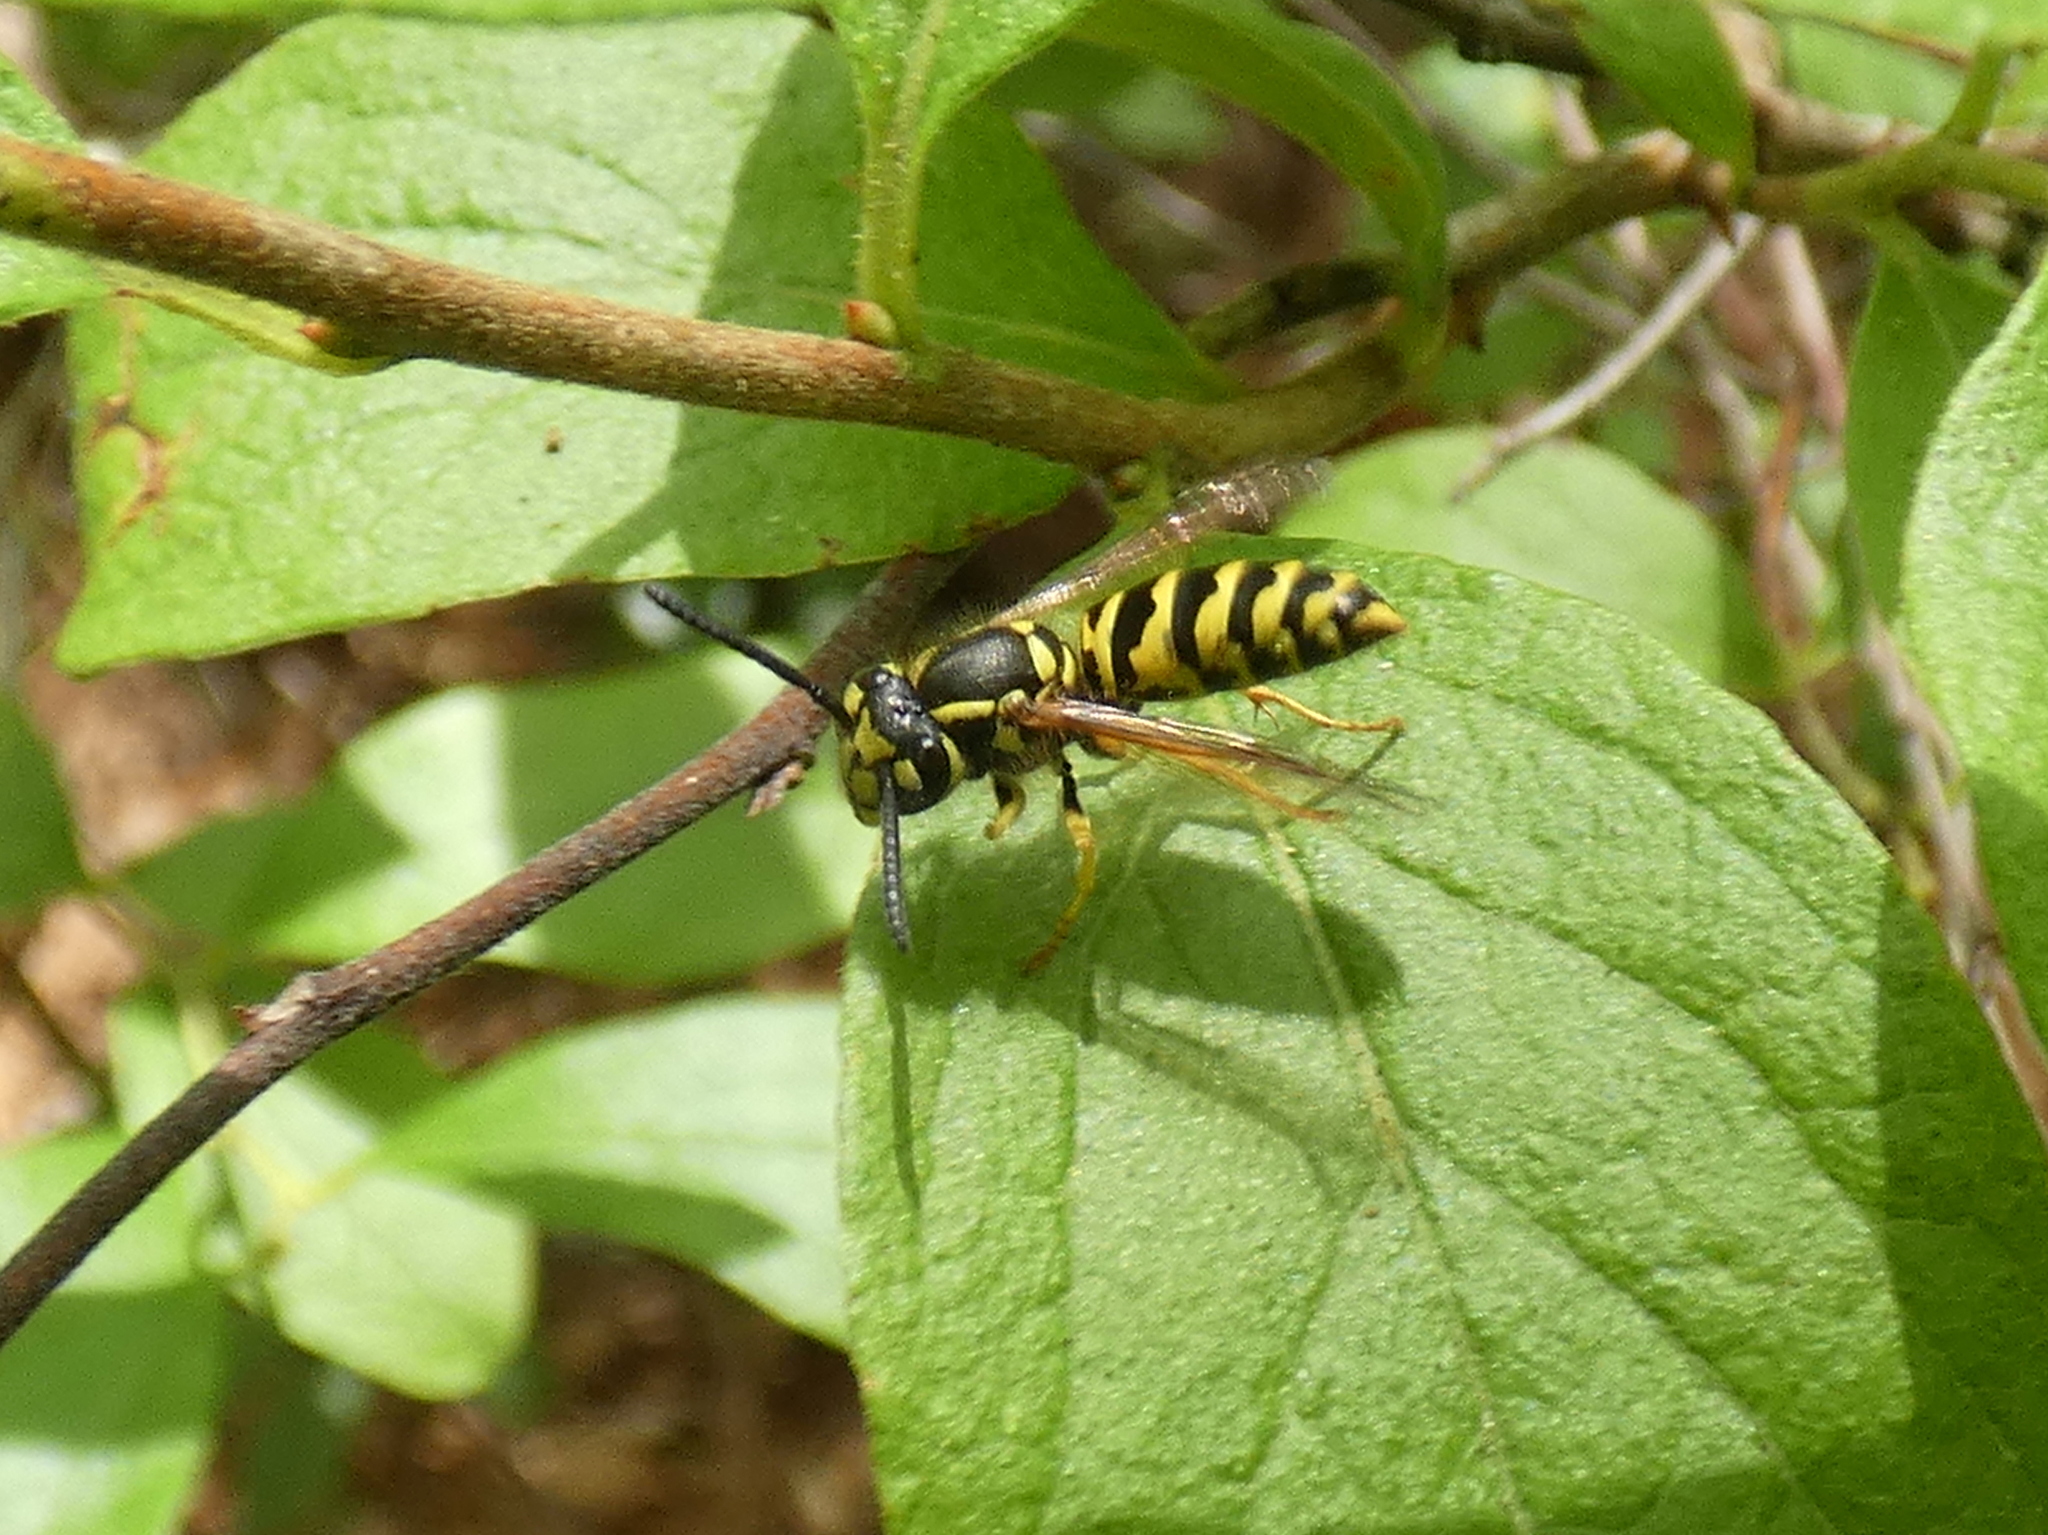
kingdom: Animalia
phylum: Arthropoda
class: Insecta
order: Hymenoptera
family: Vespidae
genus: Vespula
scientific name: Vespula maculifrons
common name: Eastern yellowjacket
